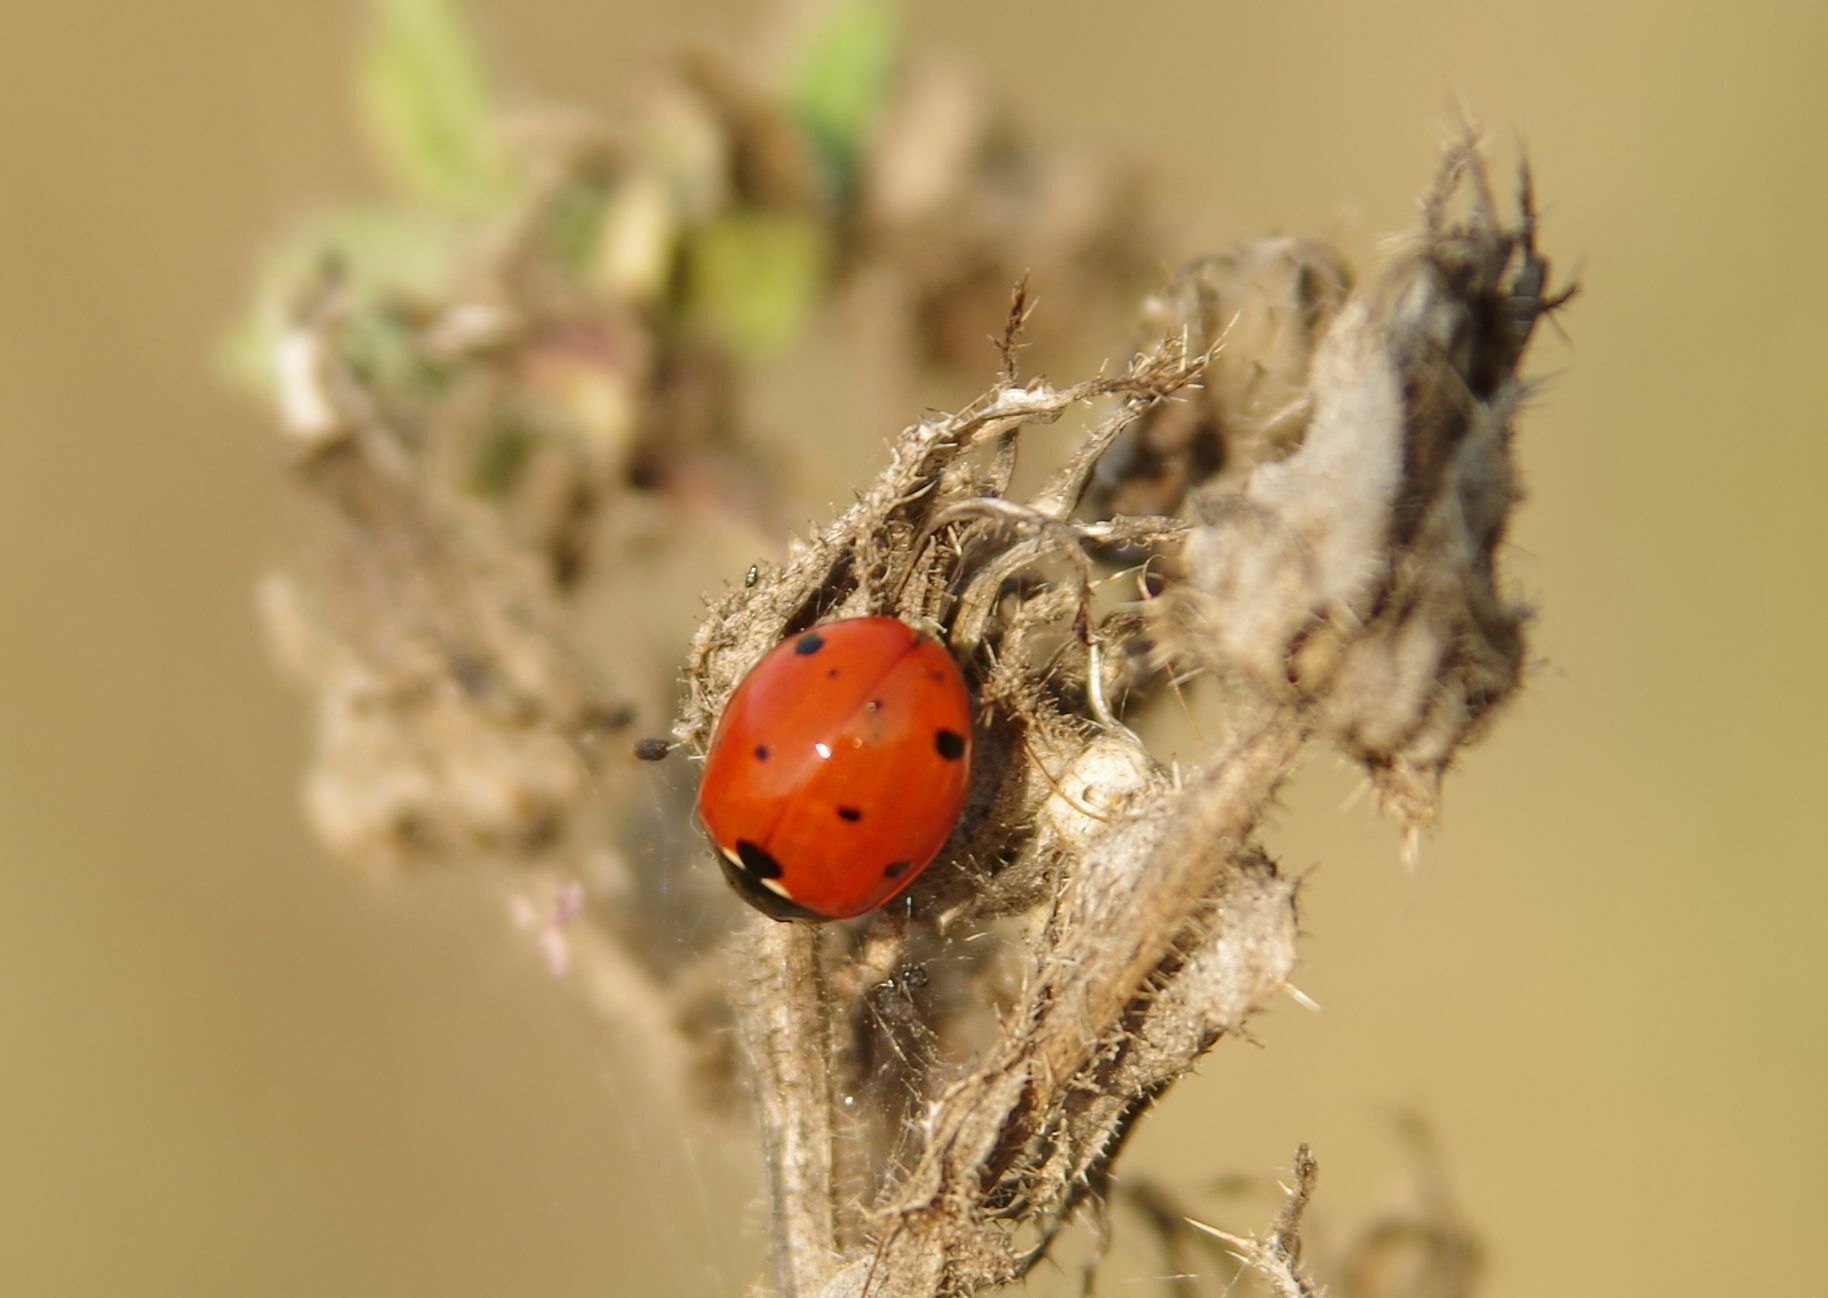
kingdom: Animalia
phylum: Arthropoda
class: Insecta
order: Coleoptera
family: Coccinellidae
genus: Coccinella
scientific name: Coccinella septempunctata
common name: Sevenspotted lady beetle
